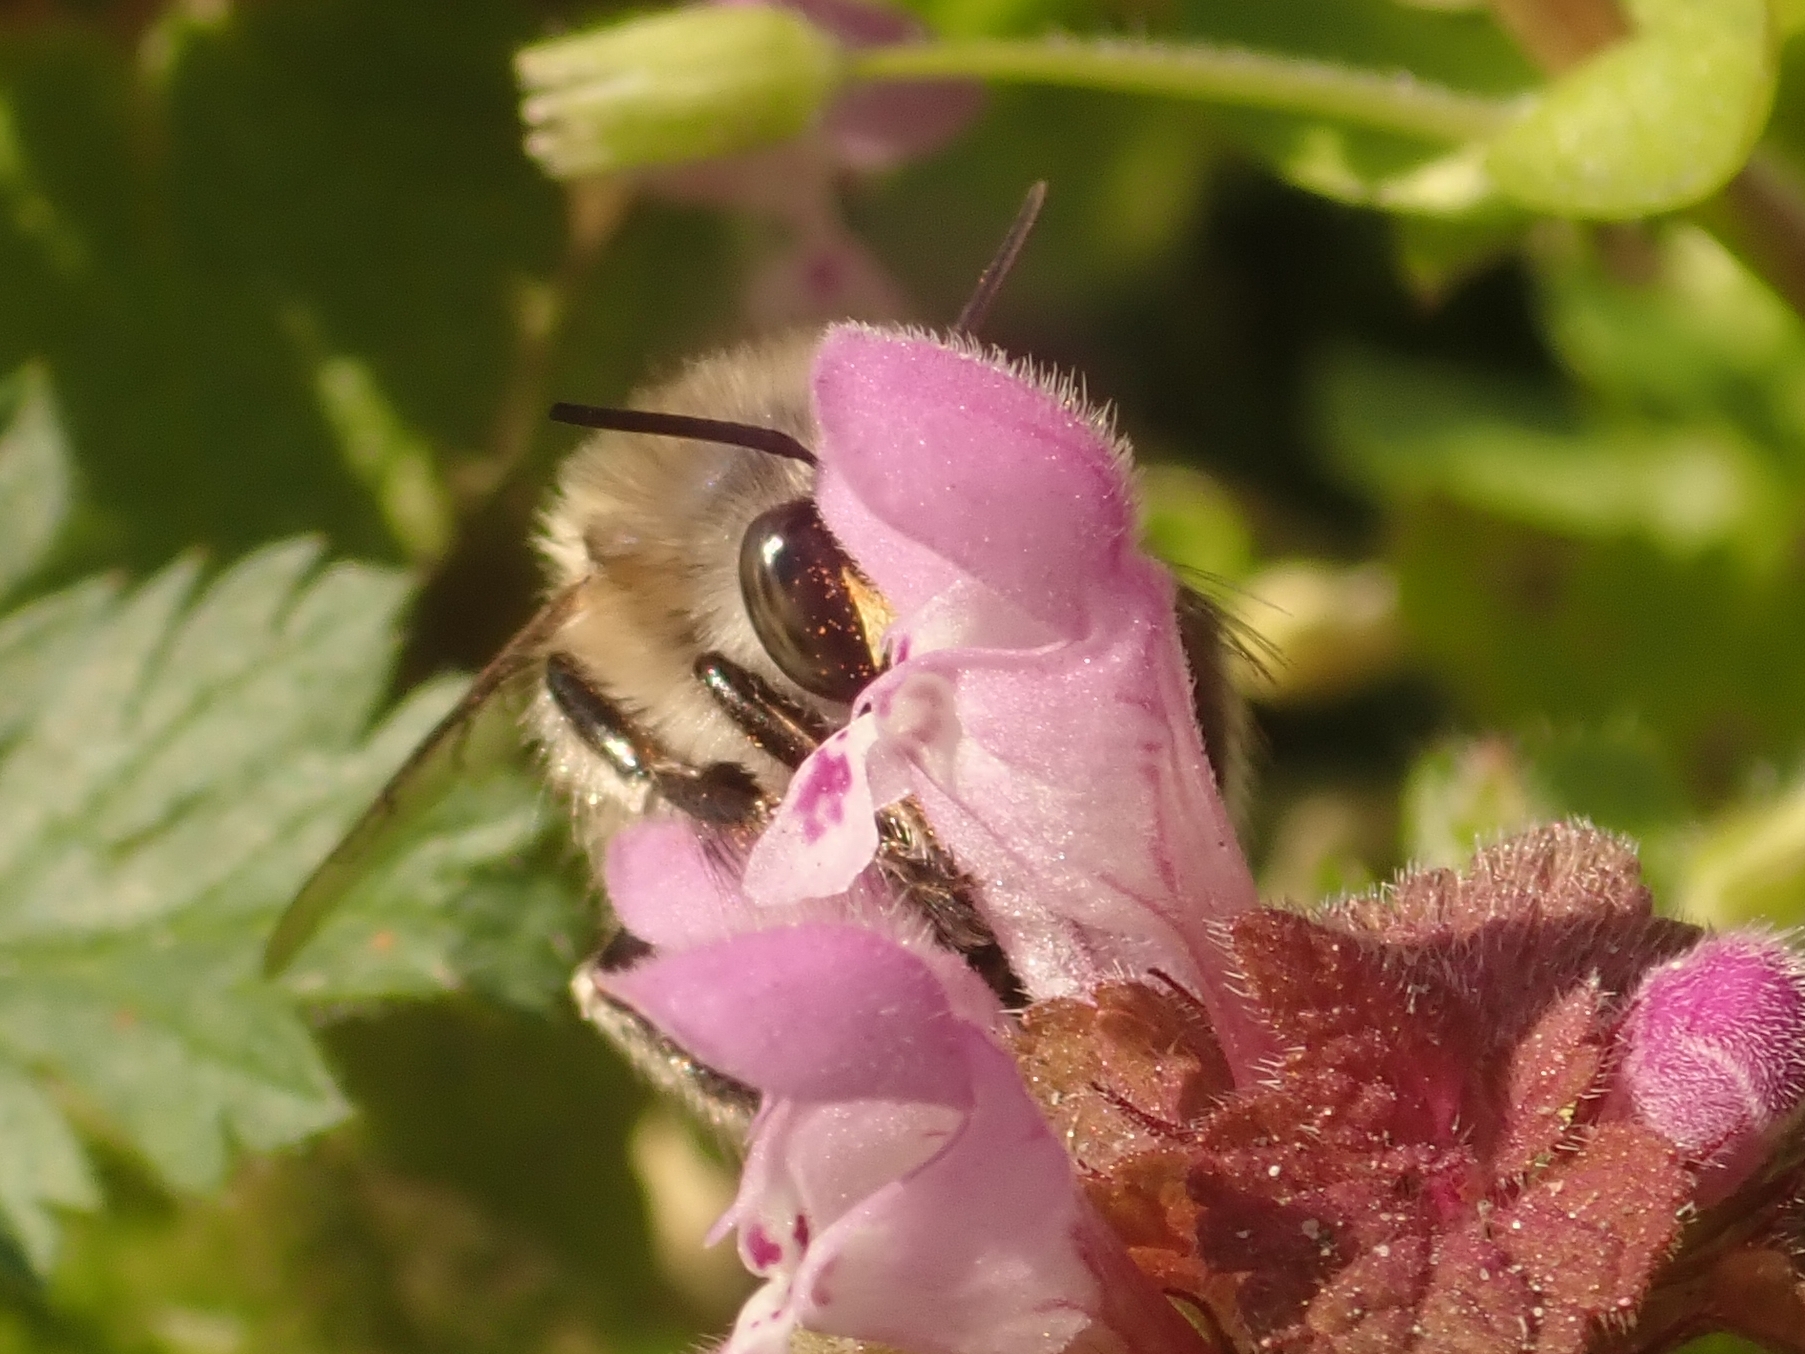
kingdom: Animalia
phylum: Arthropoda
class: Insecta
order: Hymenoptera
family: Apidae
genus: Anthophora
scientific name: Anthophora plumipes
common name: Hairy-footed flower bee
